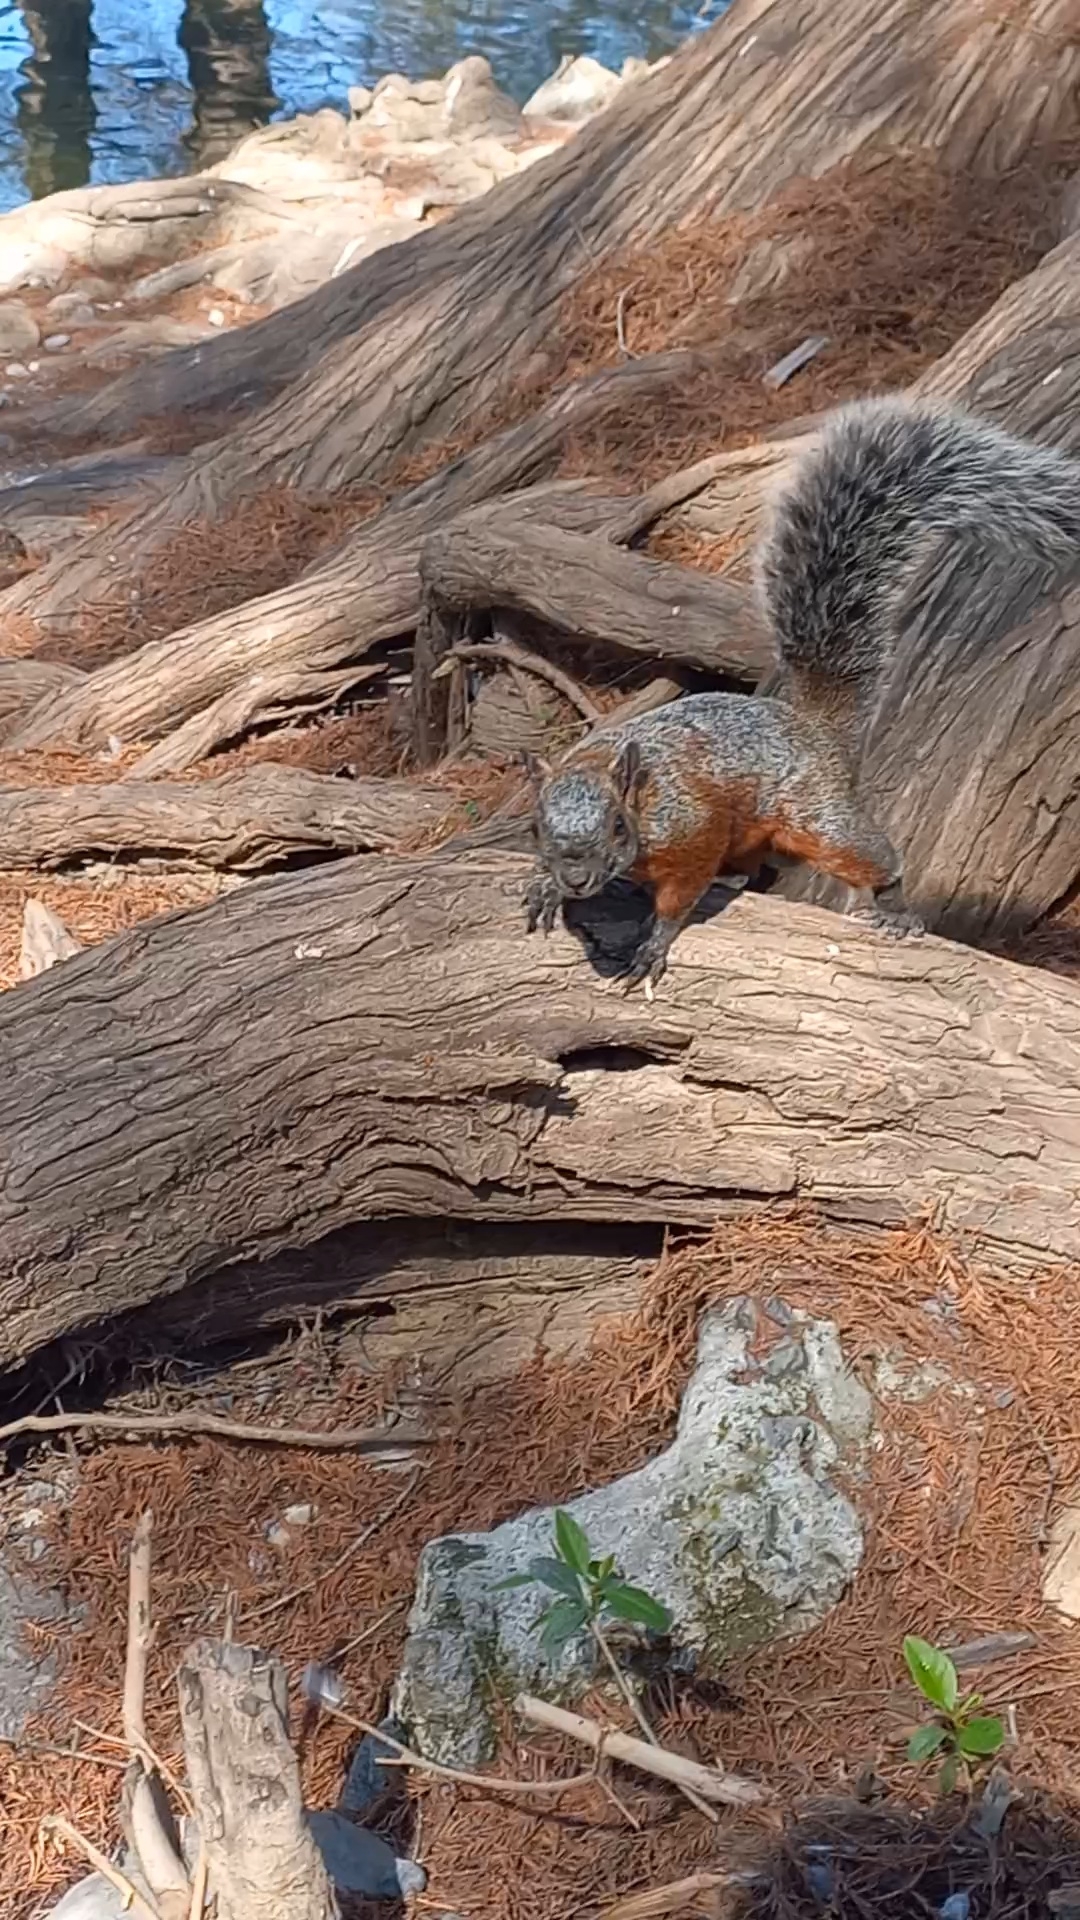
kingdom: Animalia
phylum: Chordata
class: Mammalia
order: Rodentia
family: Sciuridae
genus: Sciurus
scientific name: Sciurus aureogaster
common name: Red-bellied squirrel
